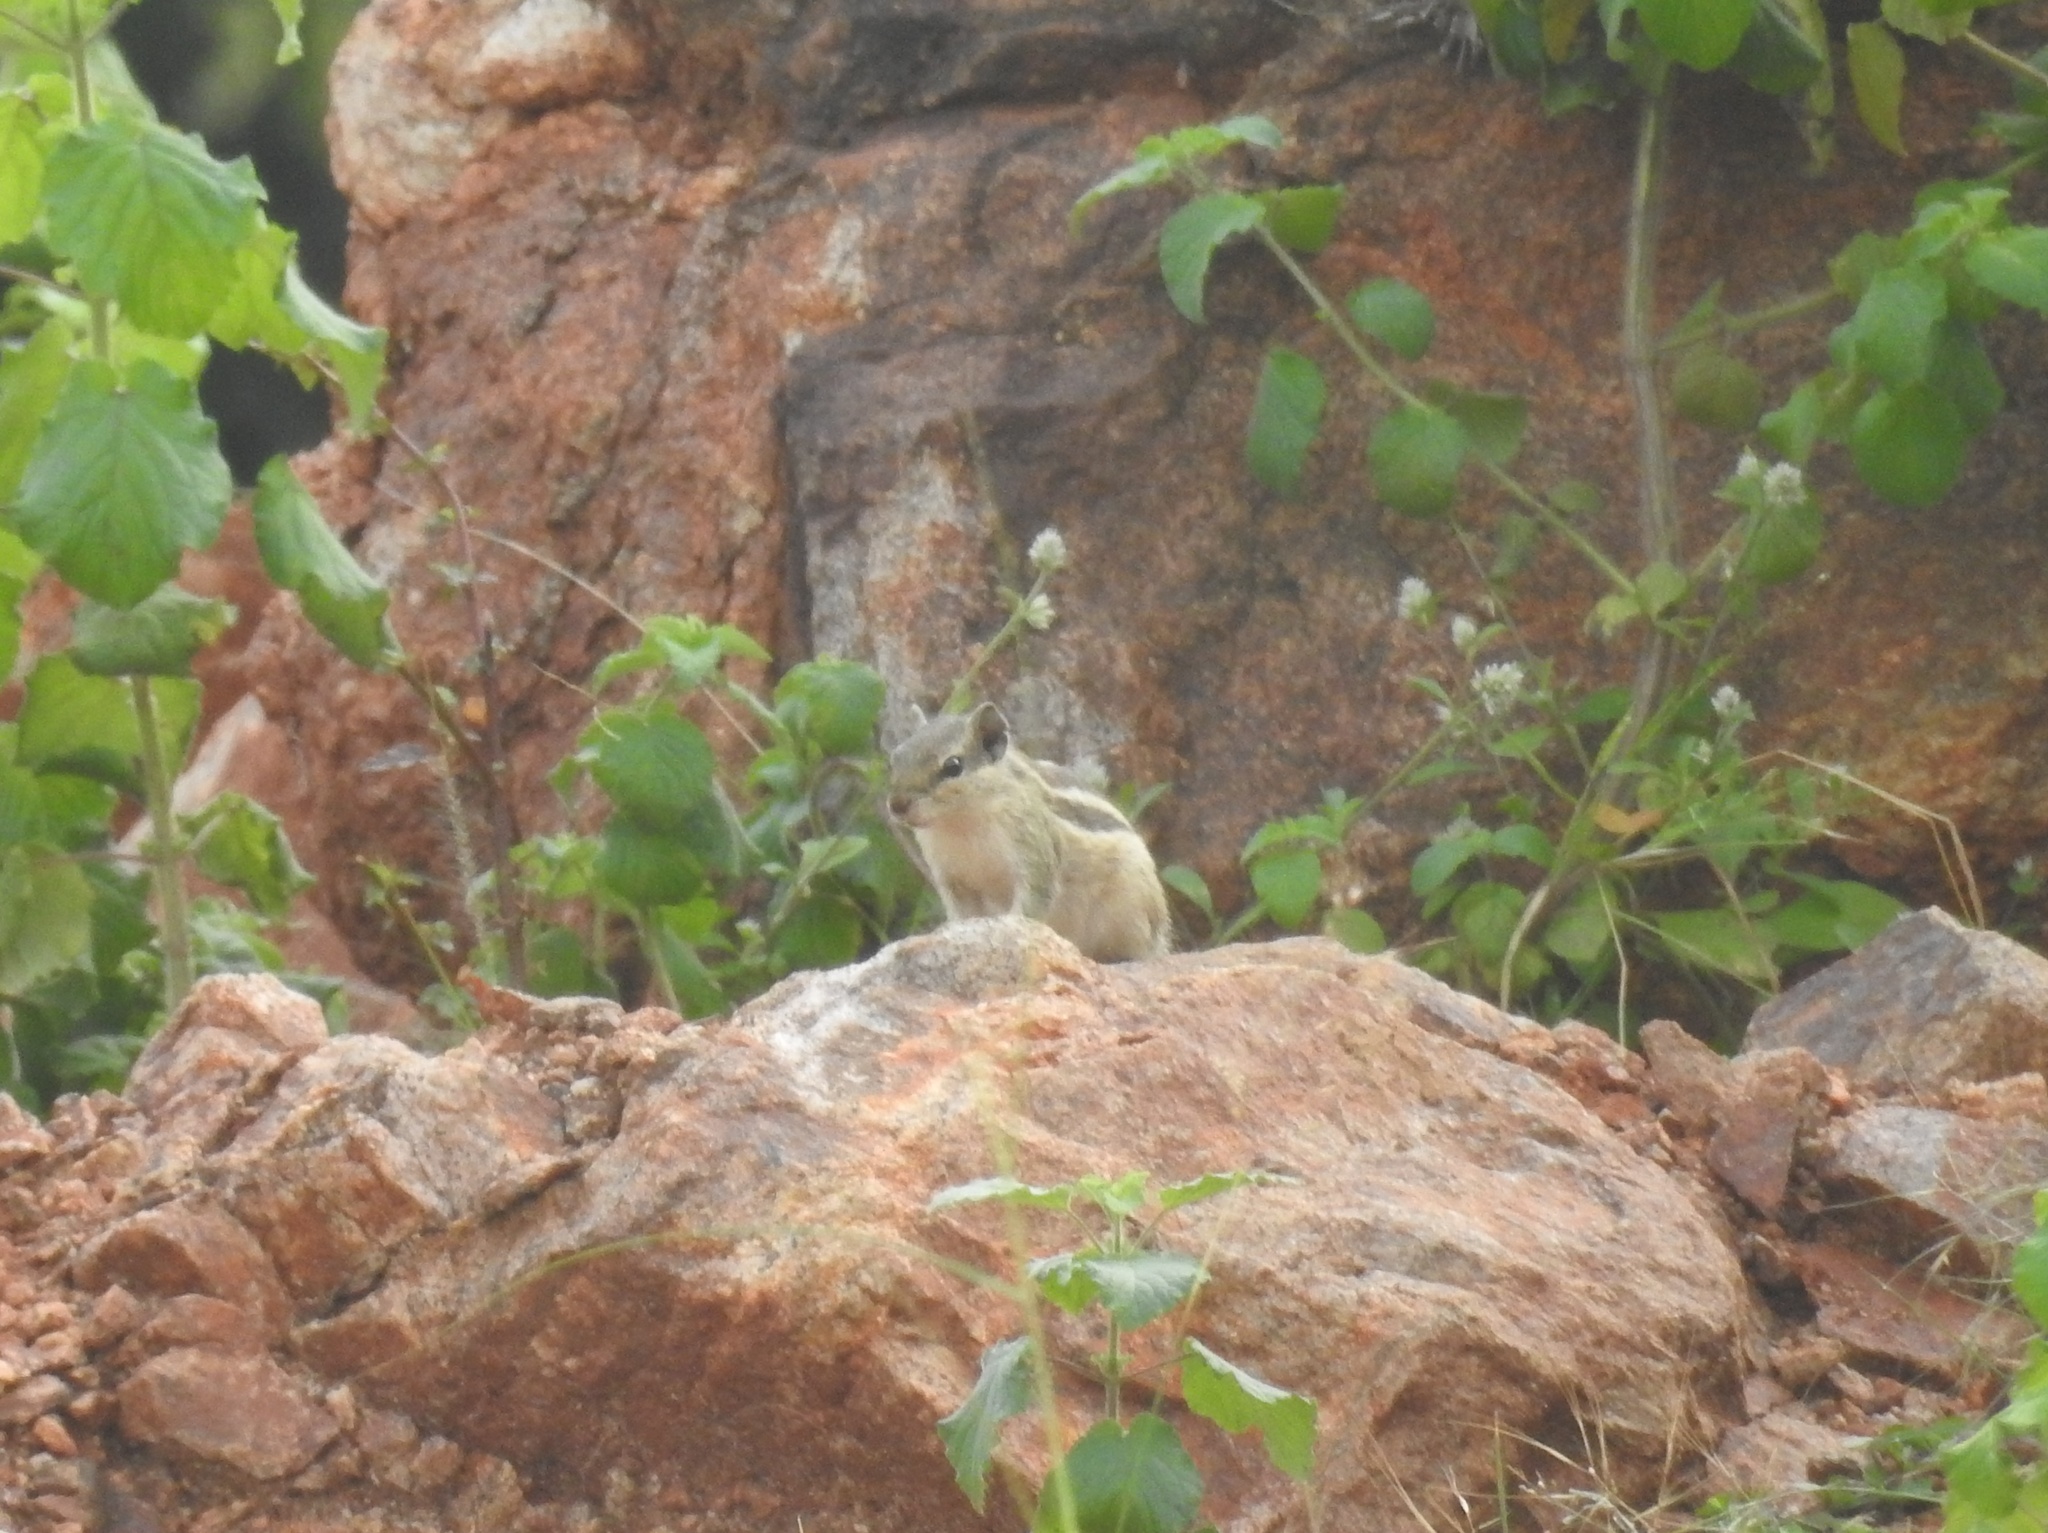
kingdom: Animalia
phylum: Chordata
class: Mammalia
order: Rodentia
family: Sciuridae
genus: Funambulus
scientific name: Funambulus pennantii
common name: Northern palm squirrel
